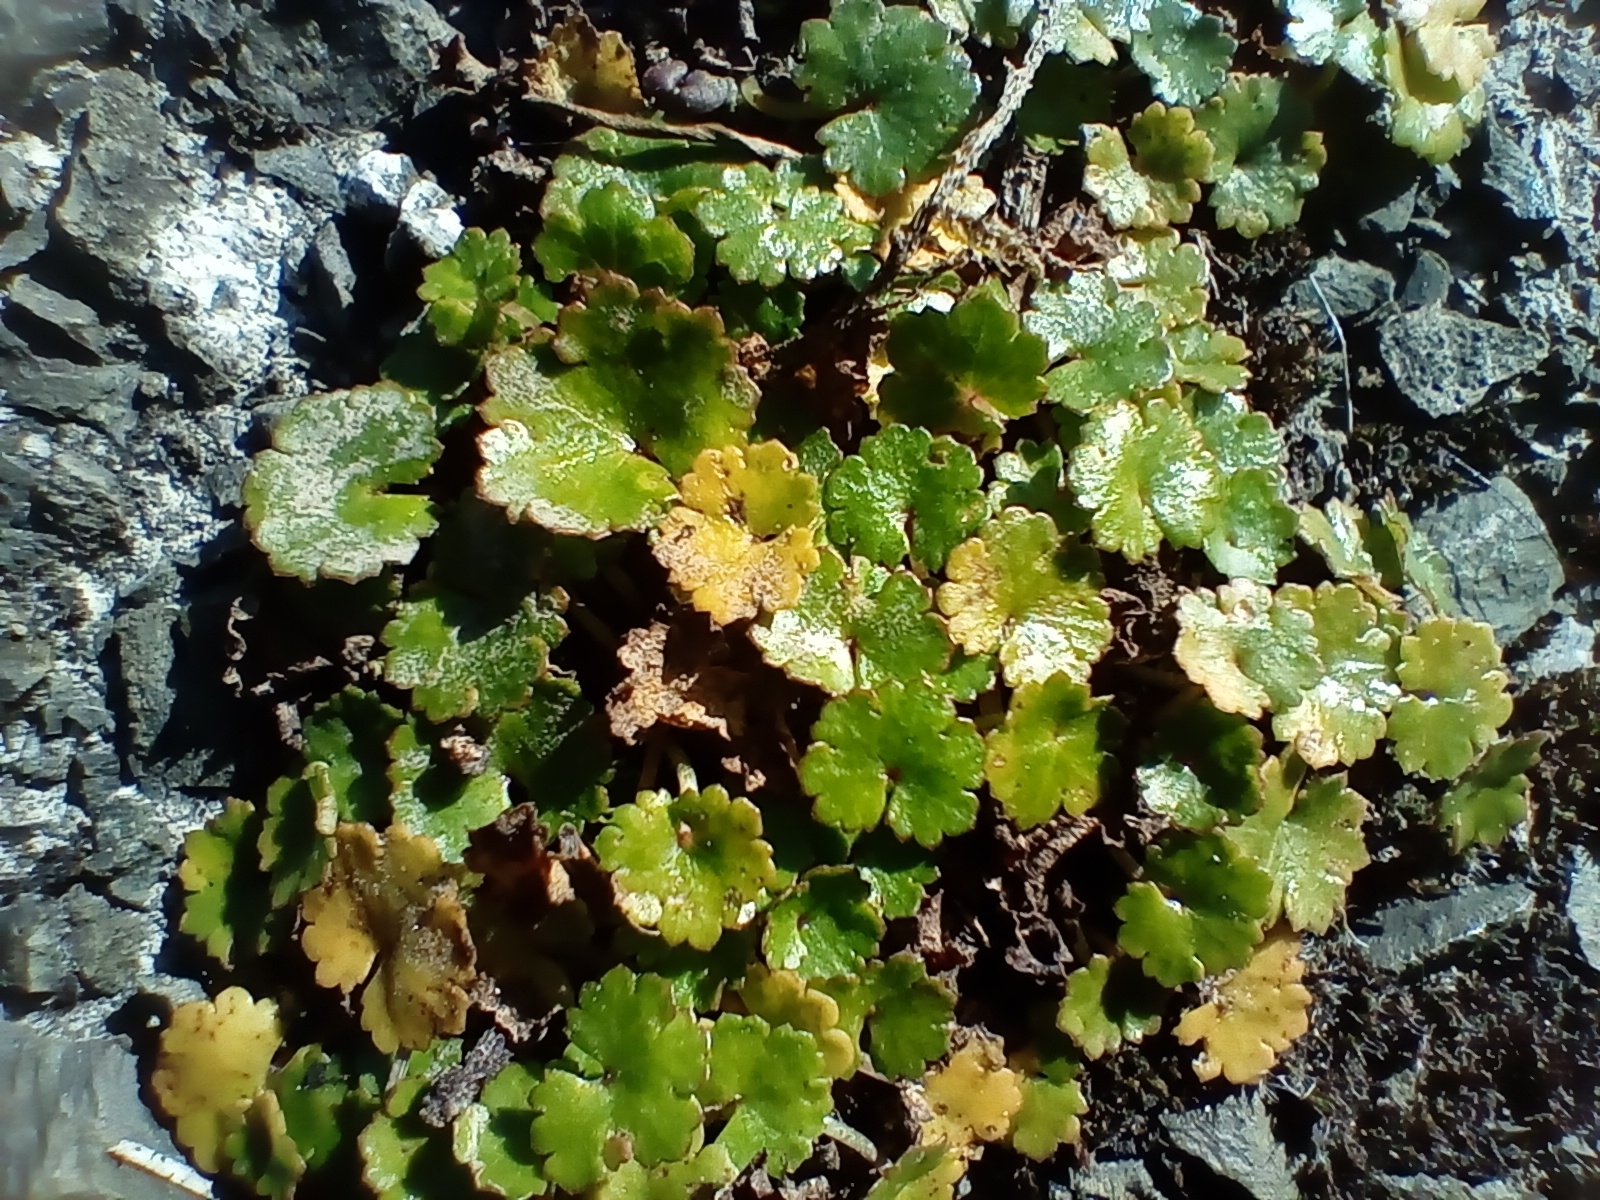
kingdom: Plantae
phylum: Tracheophyta
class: Magnoliopsida
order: Apiales
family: Araliaceae
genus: Hydrocotyle
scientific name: Hydrocotyle microphylla
